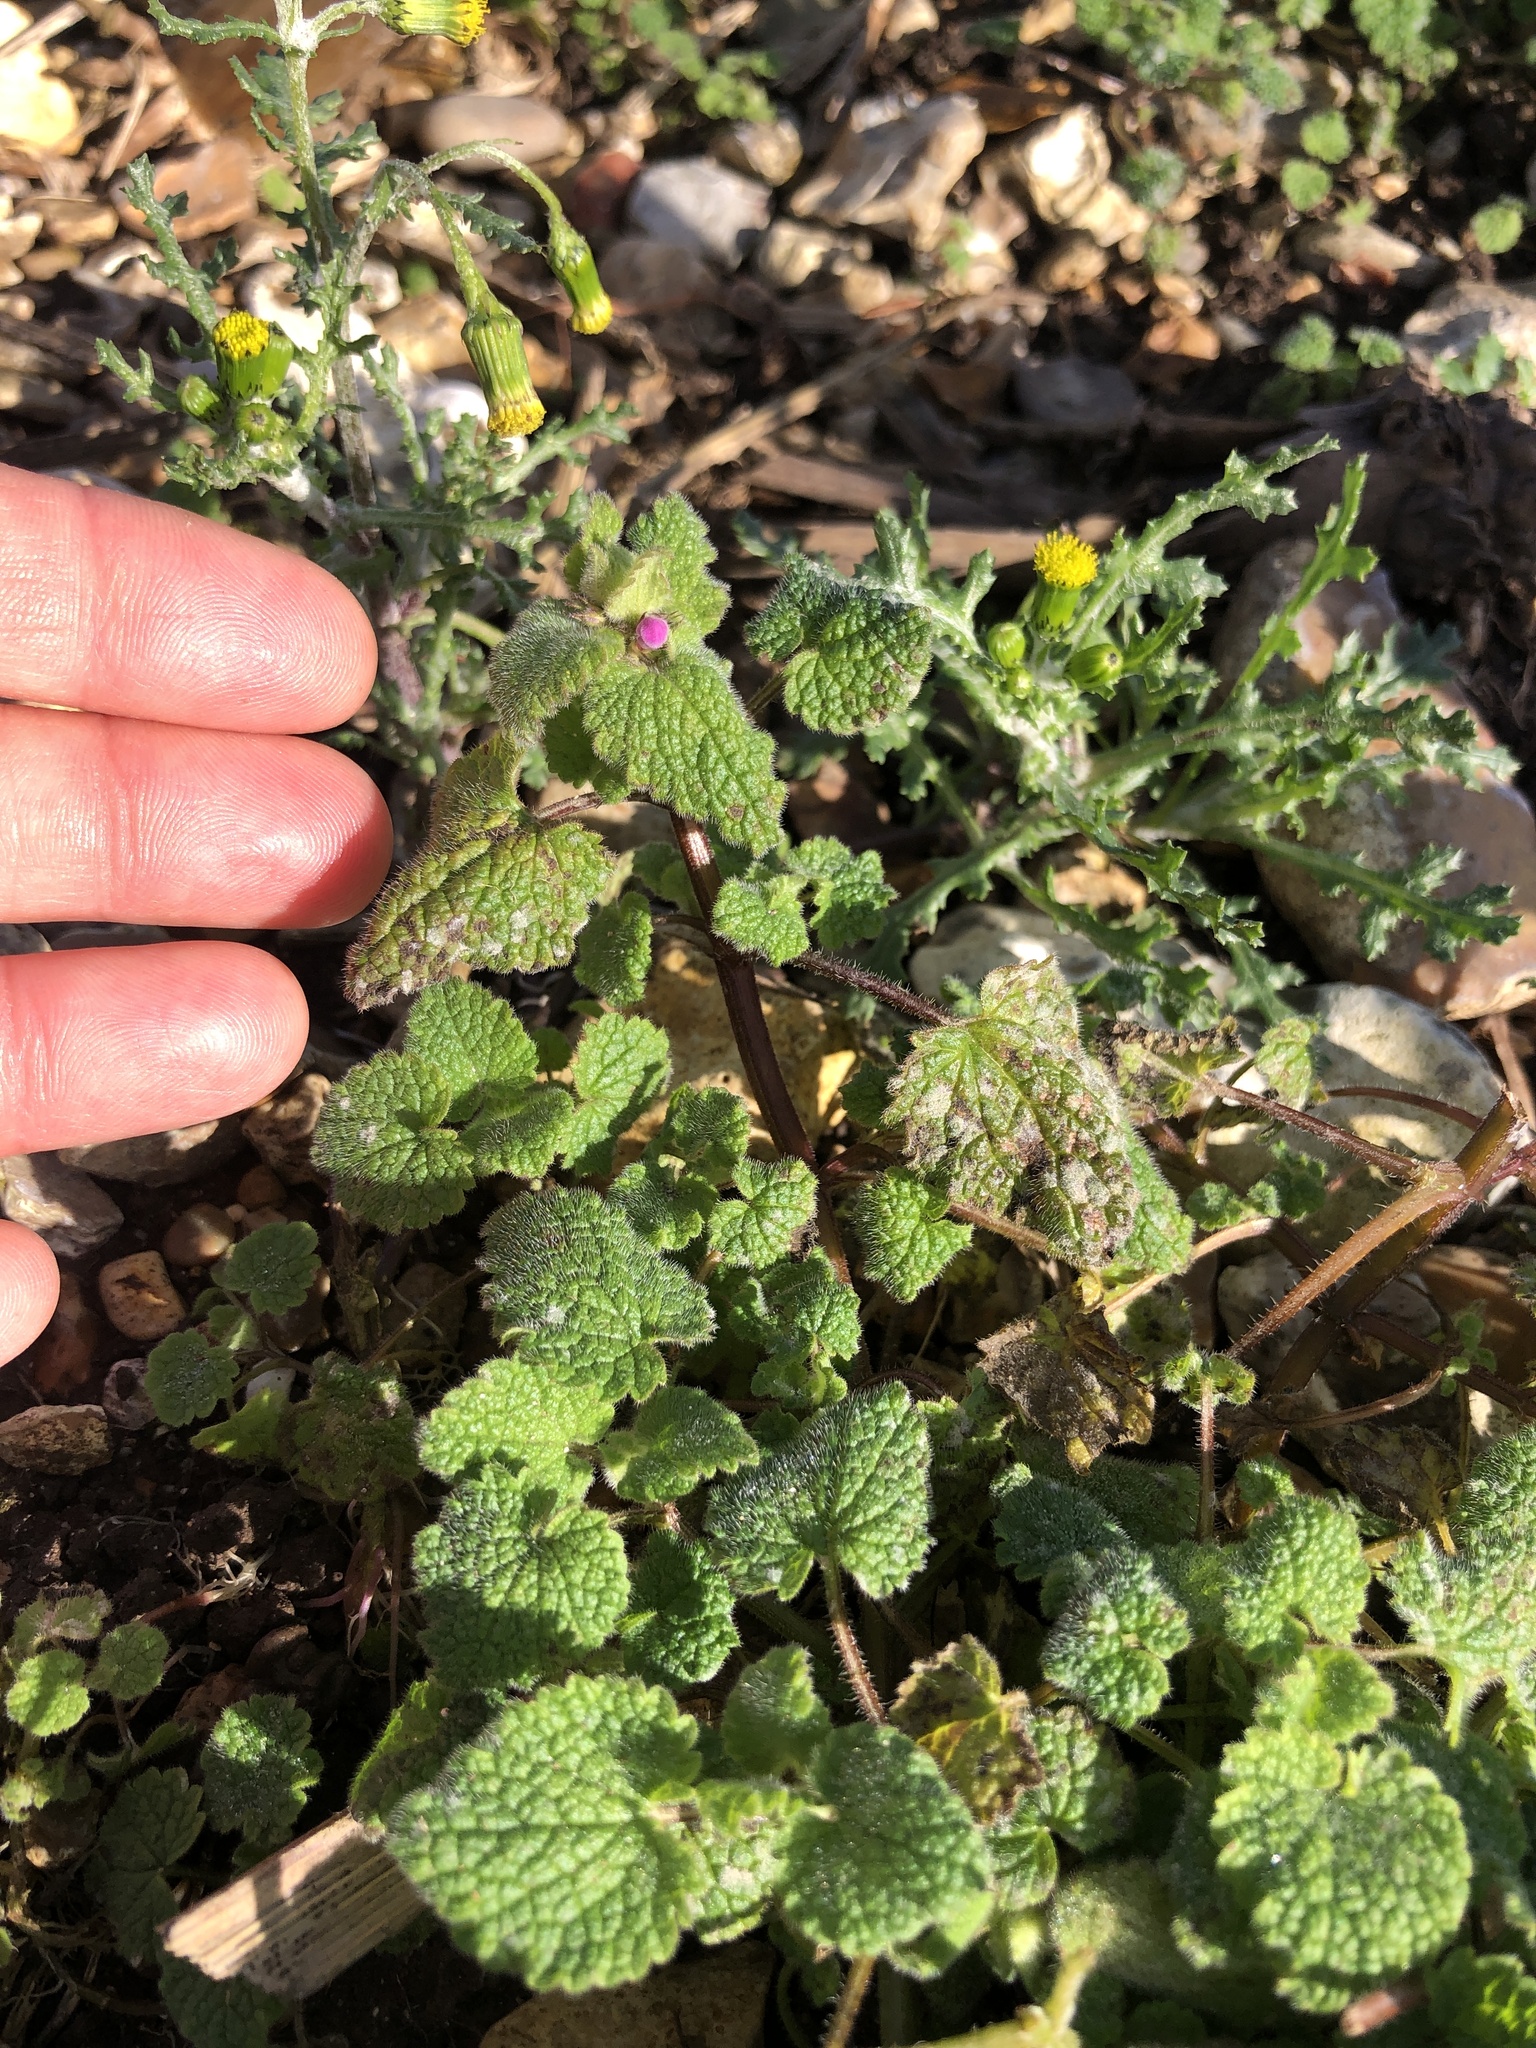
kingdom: Plantae
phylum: Tracheophyta
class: Magnoliopsida
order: Lamiales
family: Lamiaceae
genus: Lamium
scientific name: Lamium purpureum
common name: Red dead-nettle
